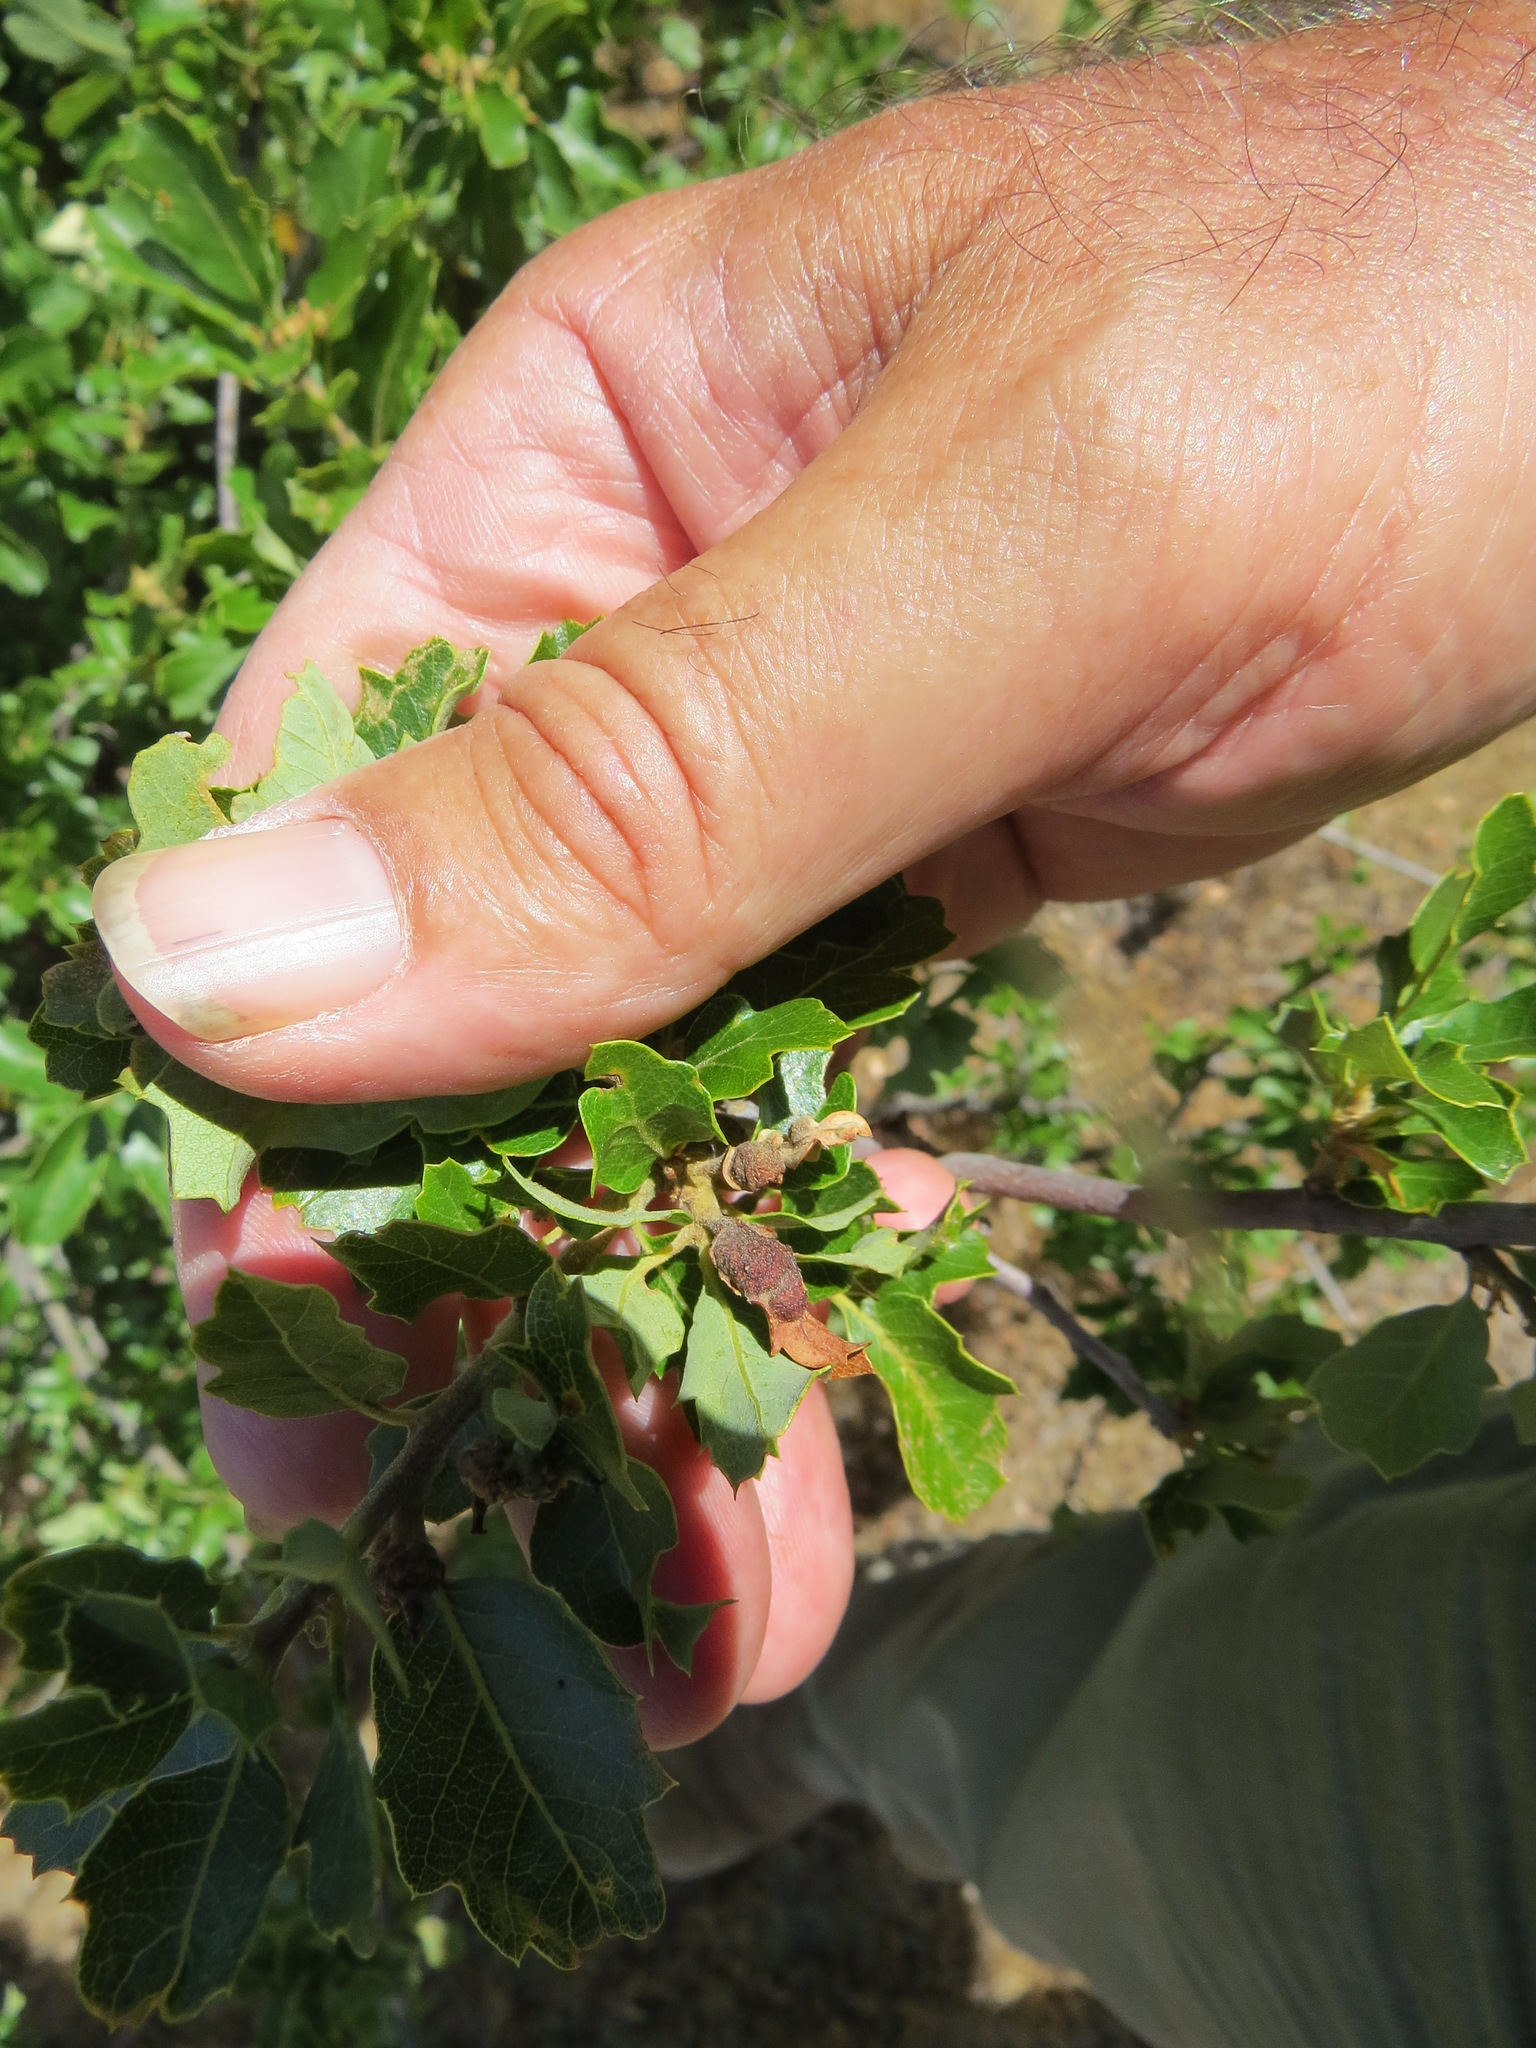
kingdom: Animalia
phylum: Arthropoda
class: Insecta
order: Hymenoptera
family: Cynipidae
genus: Neuroterus
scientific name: Neuroterus
